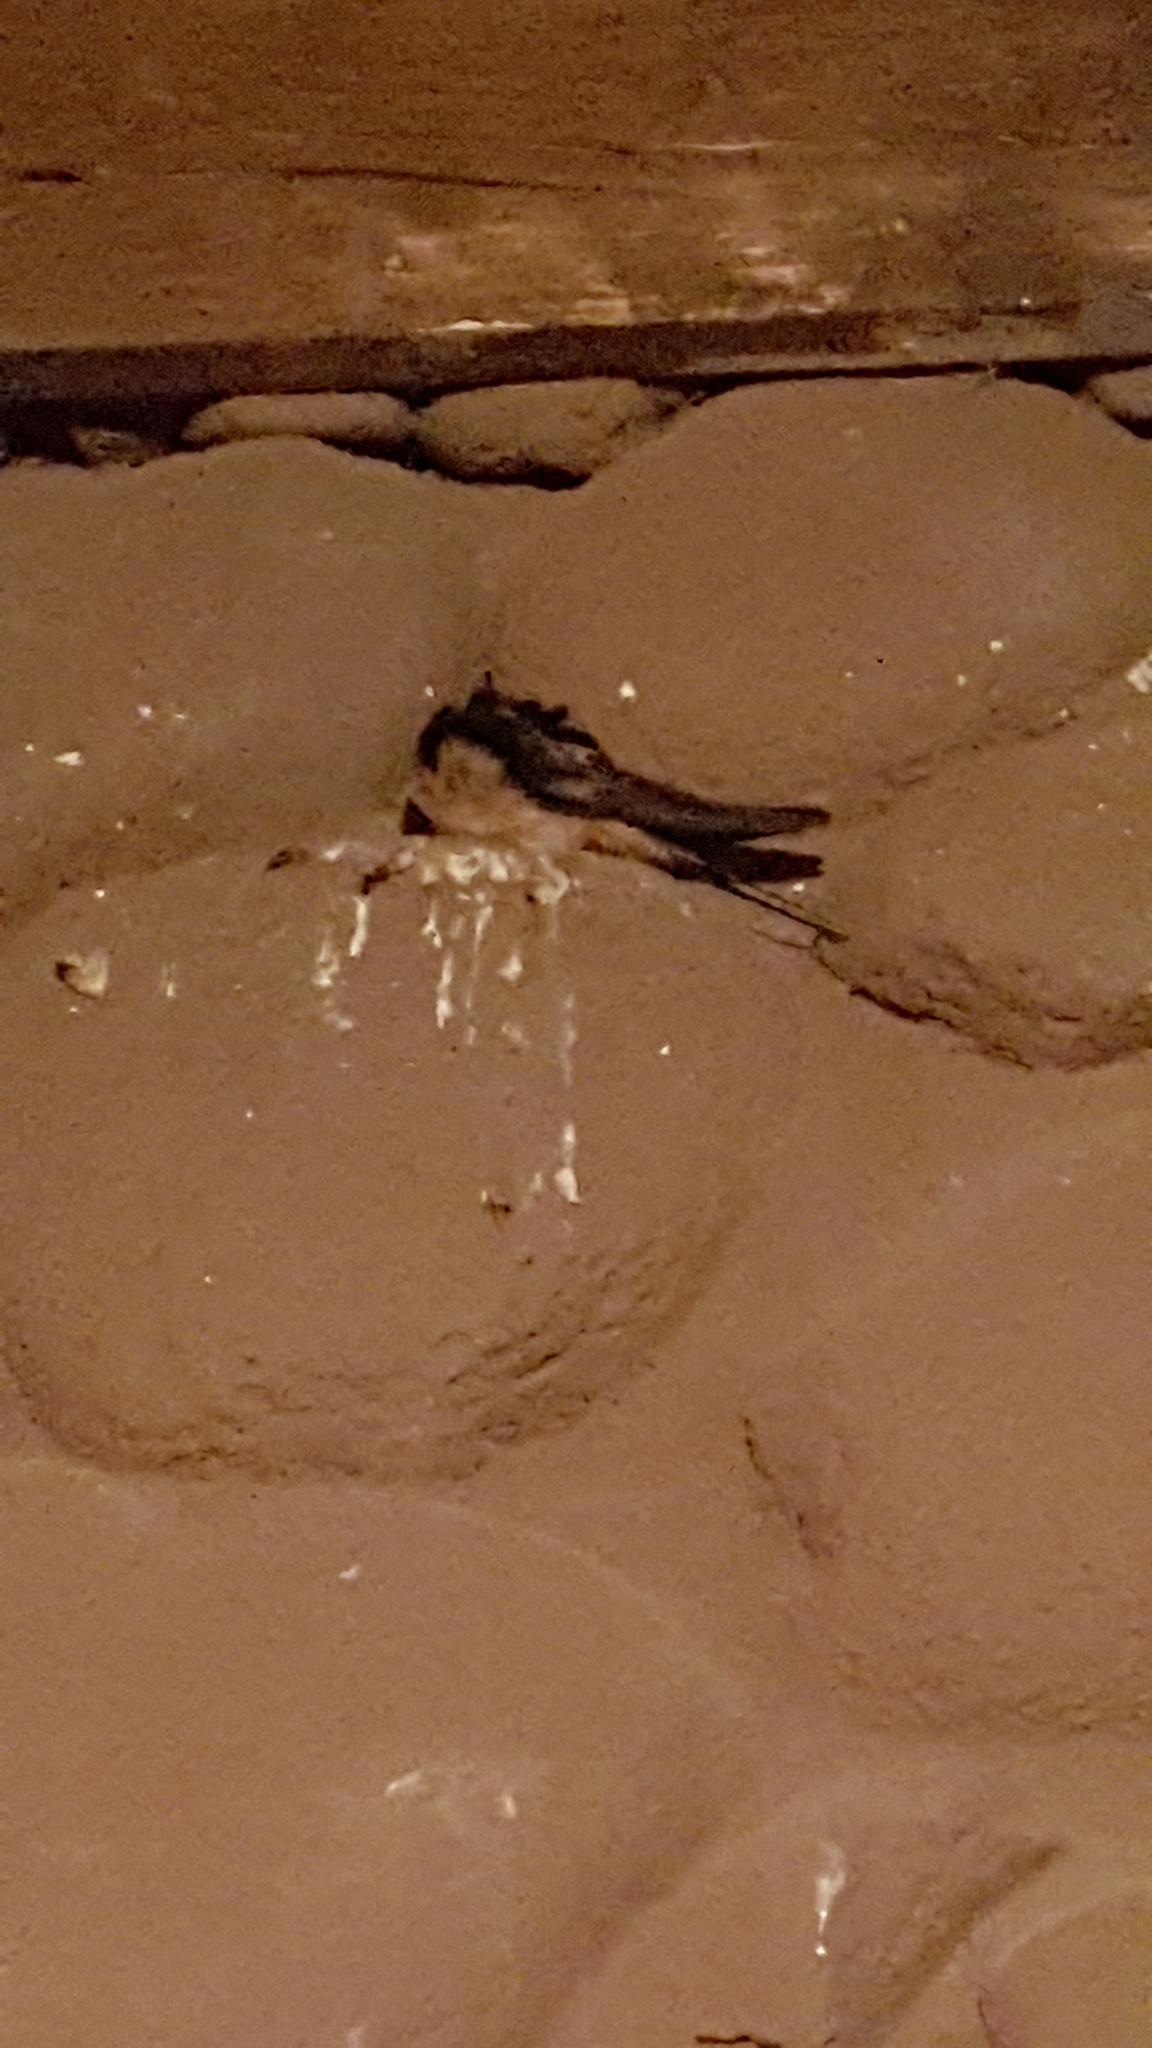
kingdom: Animalia
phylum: Chordata
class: Aves
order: Passeriformes
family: Hirundinidae
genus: Hirundo
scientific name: Hirundo rustica
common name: Barn swallow
